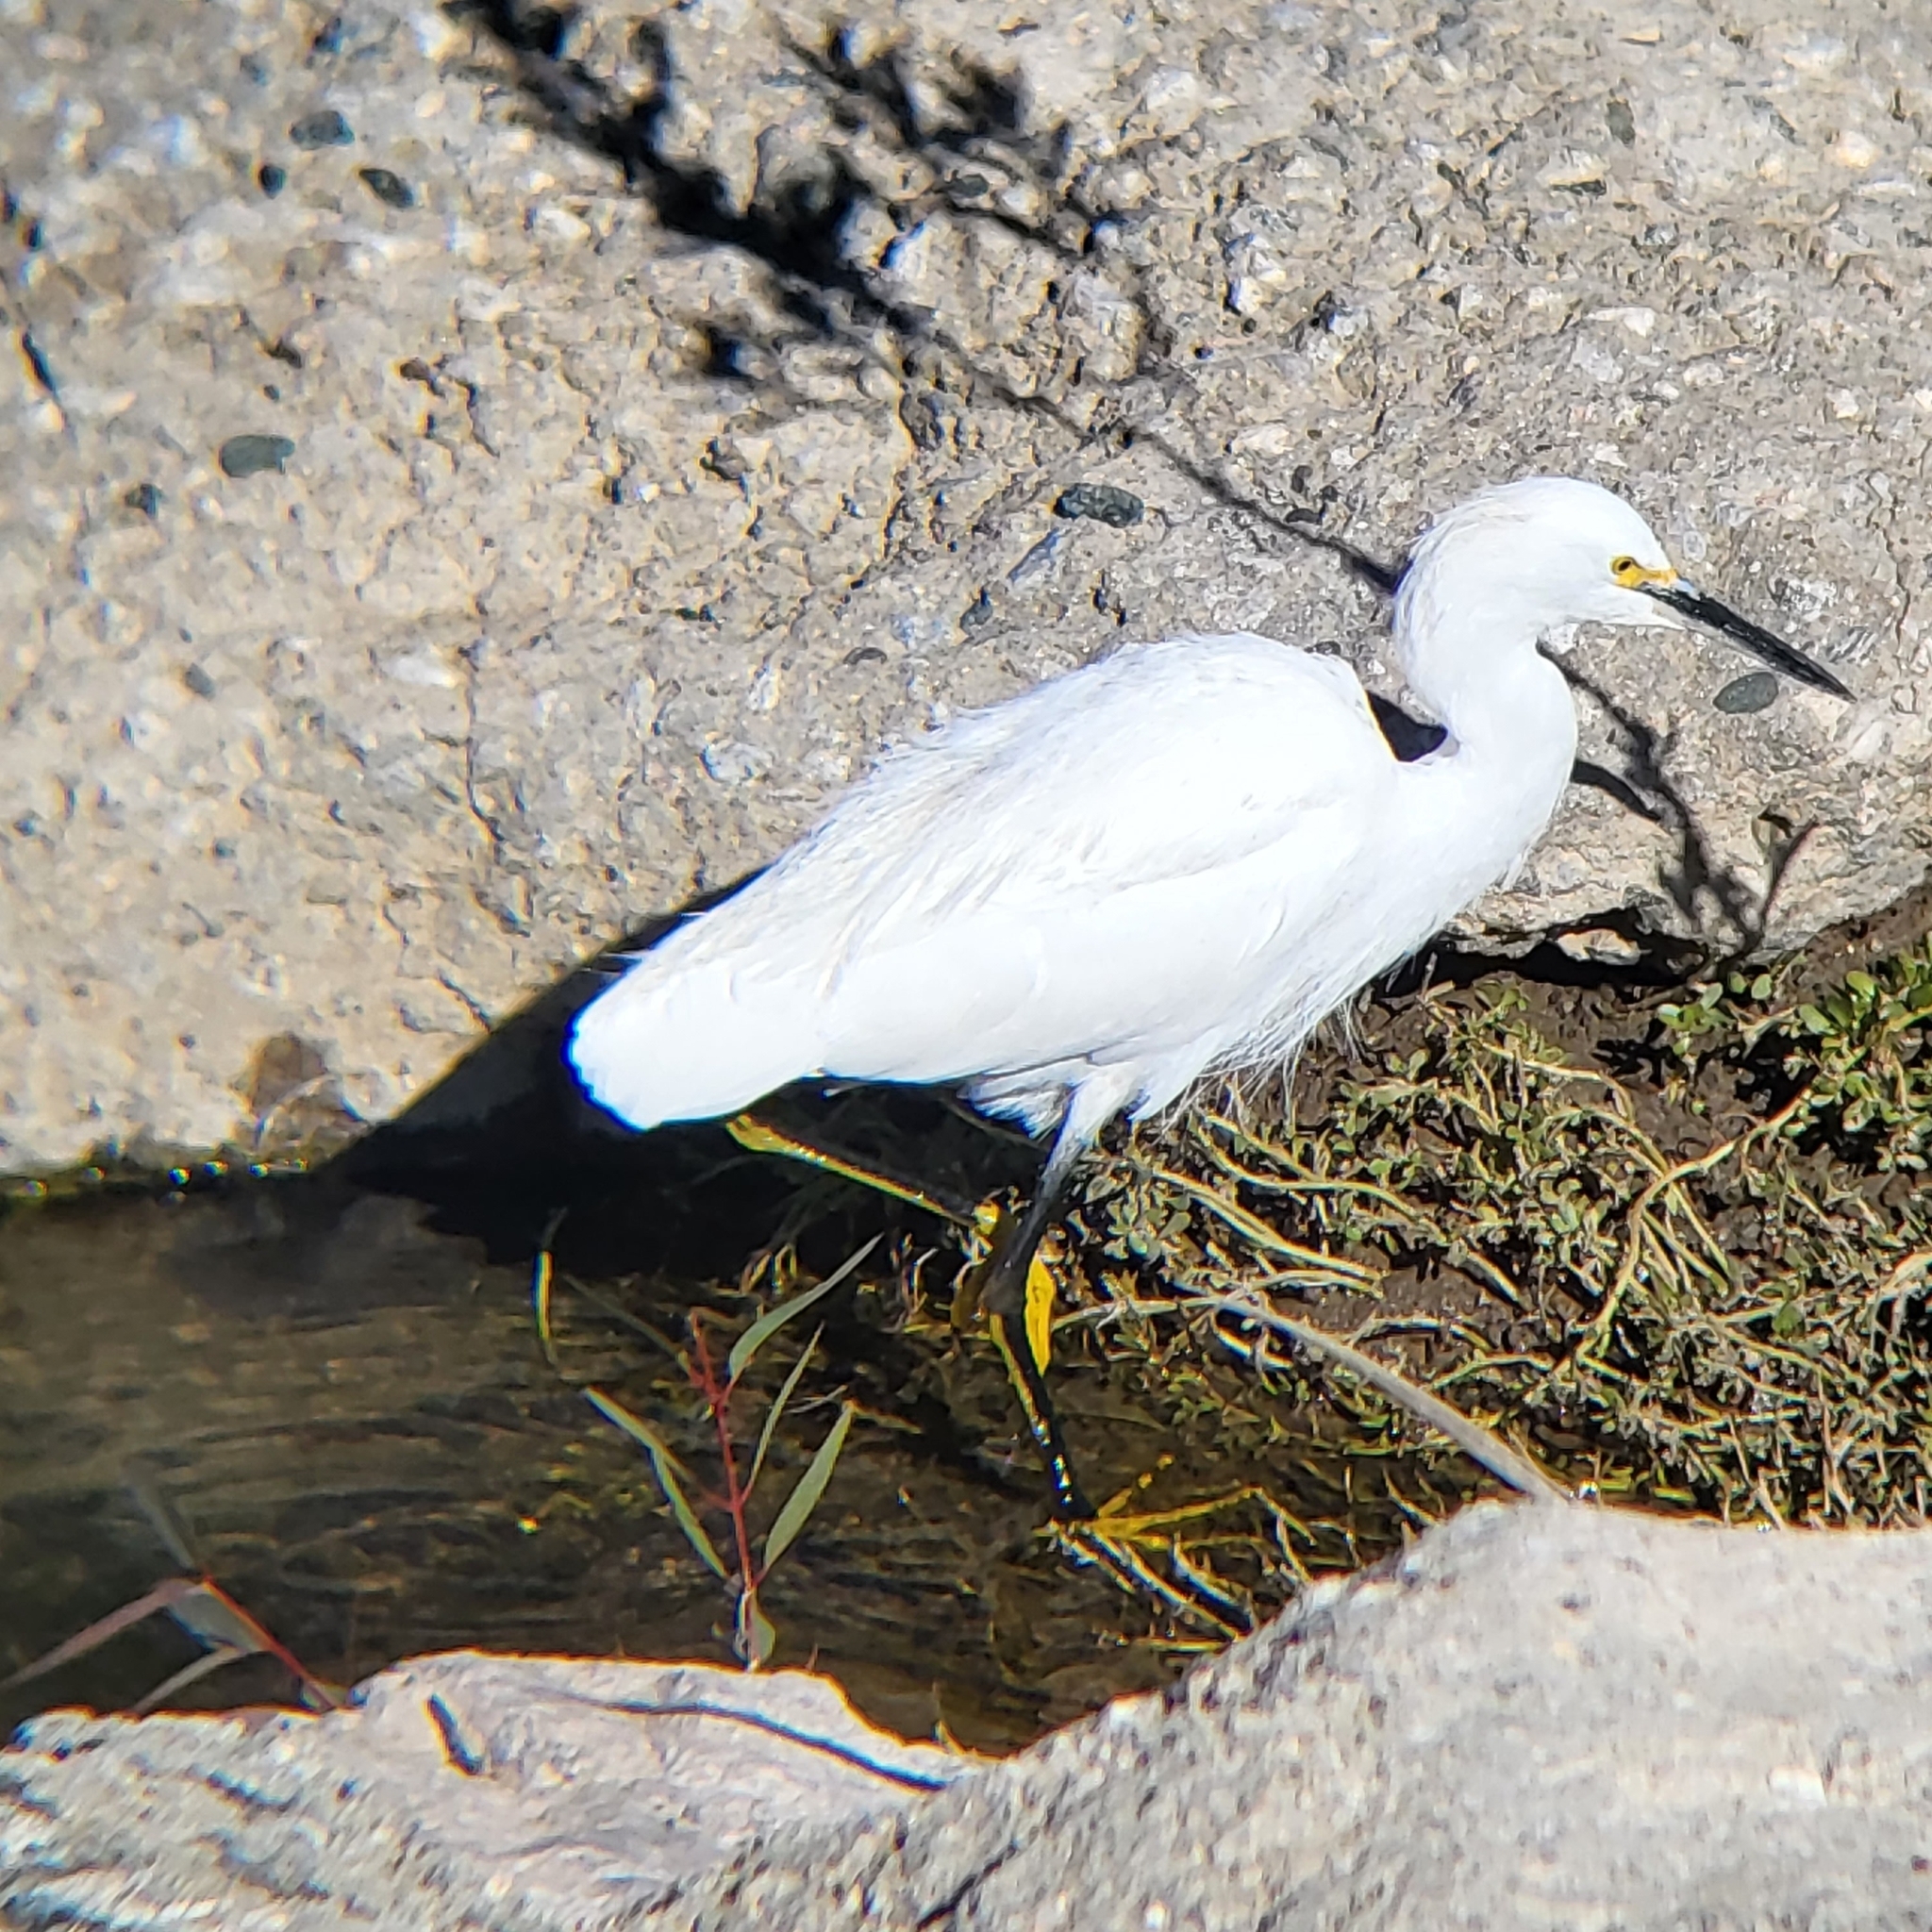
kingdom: Animalia
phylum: Chordata
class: Aves
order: Pelecaniformes
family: Ardeidae
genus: Egretta
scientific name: Egretta thula
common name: Snowy egret
